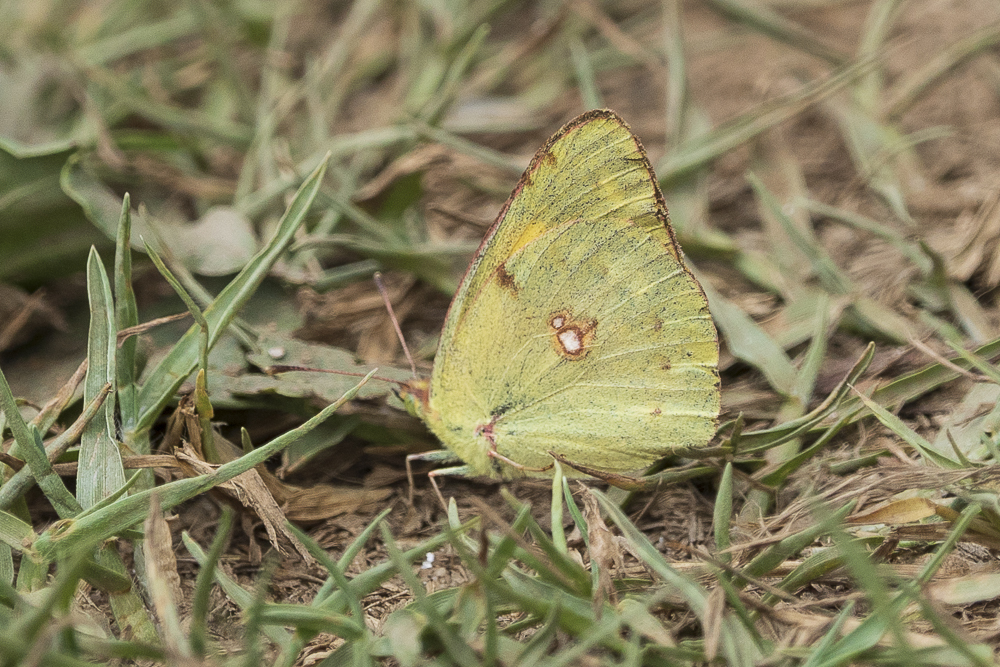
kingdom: Animalia
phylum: Arthropoda
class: Insecta
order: Lepidoptera
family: Pieridae
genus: Colias
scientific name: Colias croceus
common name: Clouded yellow
